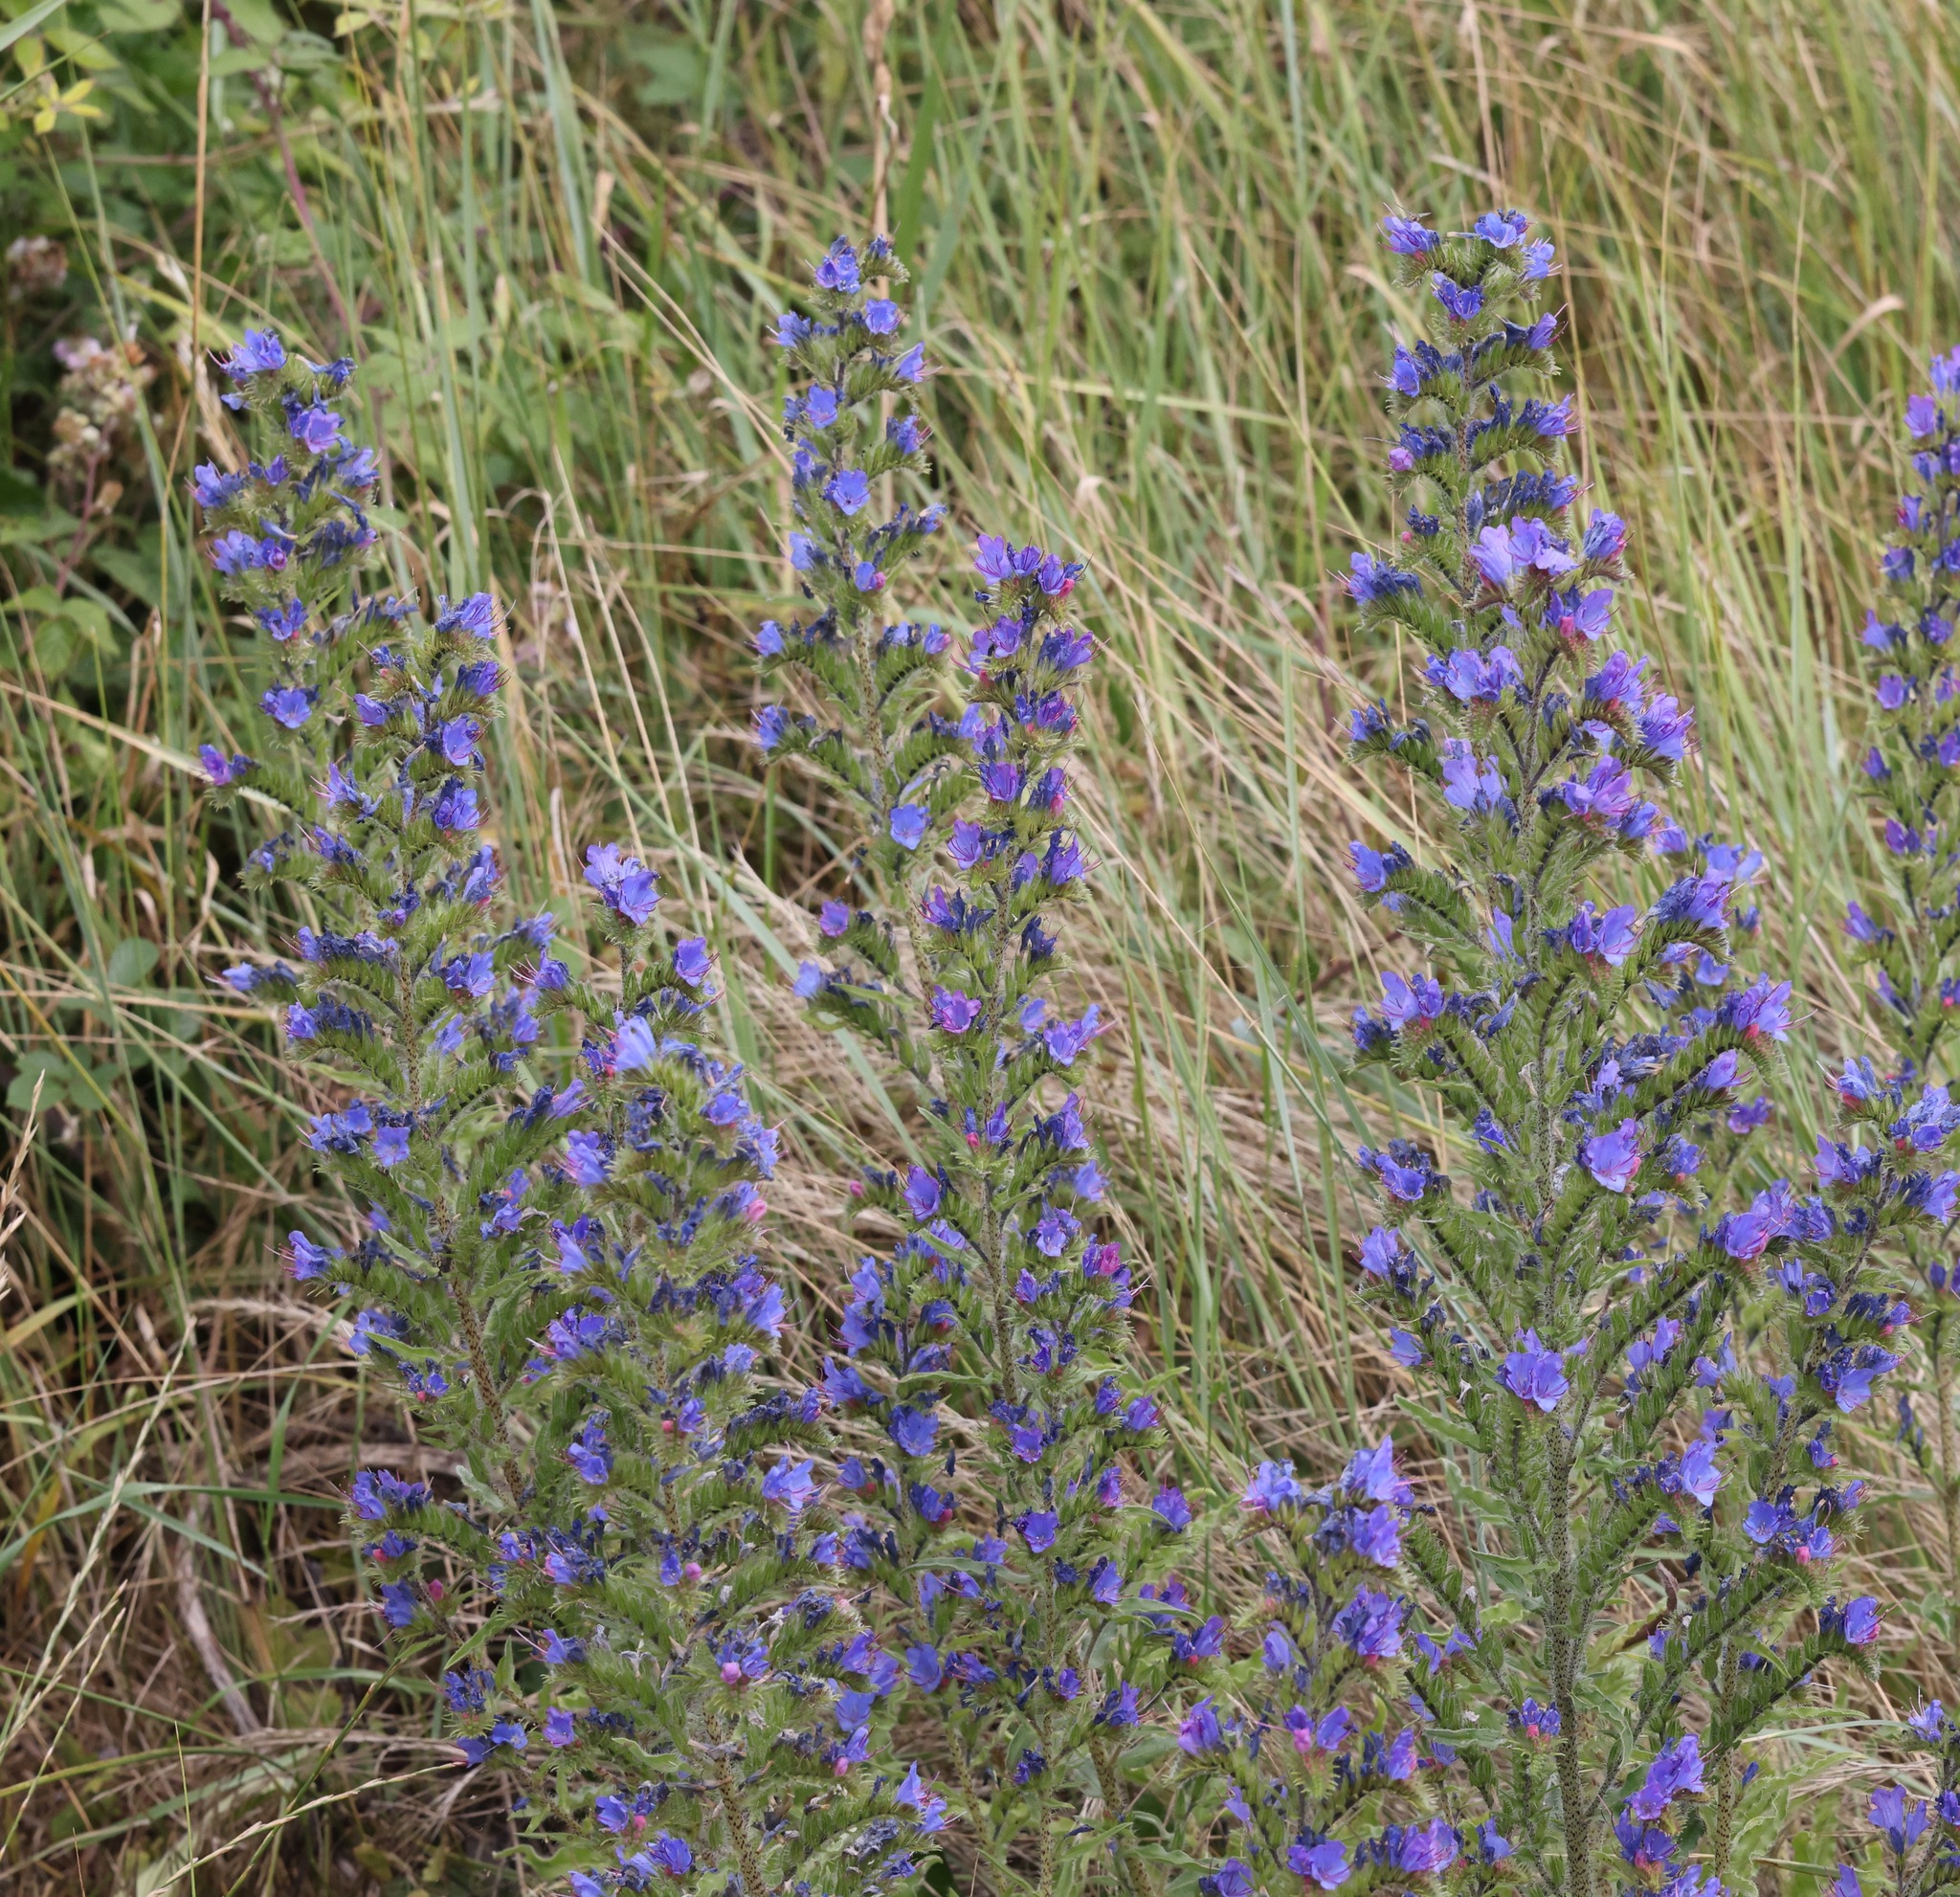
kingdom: Plantae
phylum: Tracheophyta
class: Magnoliopsida
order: Boraginales
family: Boraginaceae
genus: Echium
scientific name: Echium vulgare
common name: Common viper's bugloss
